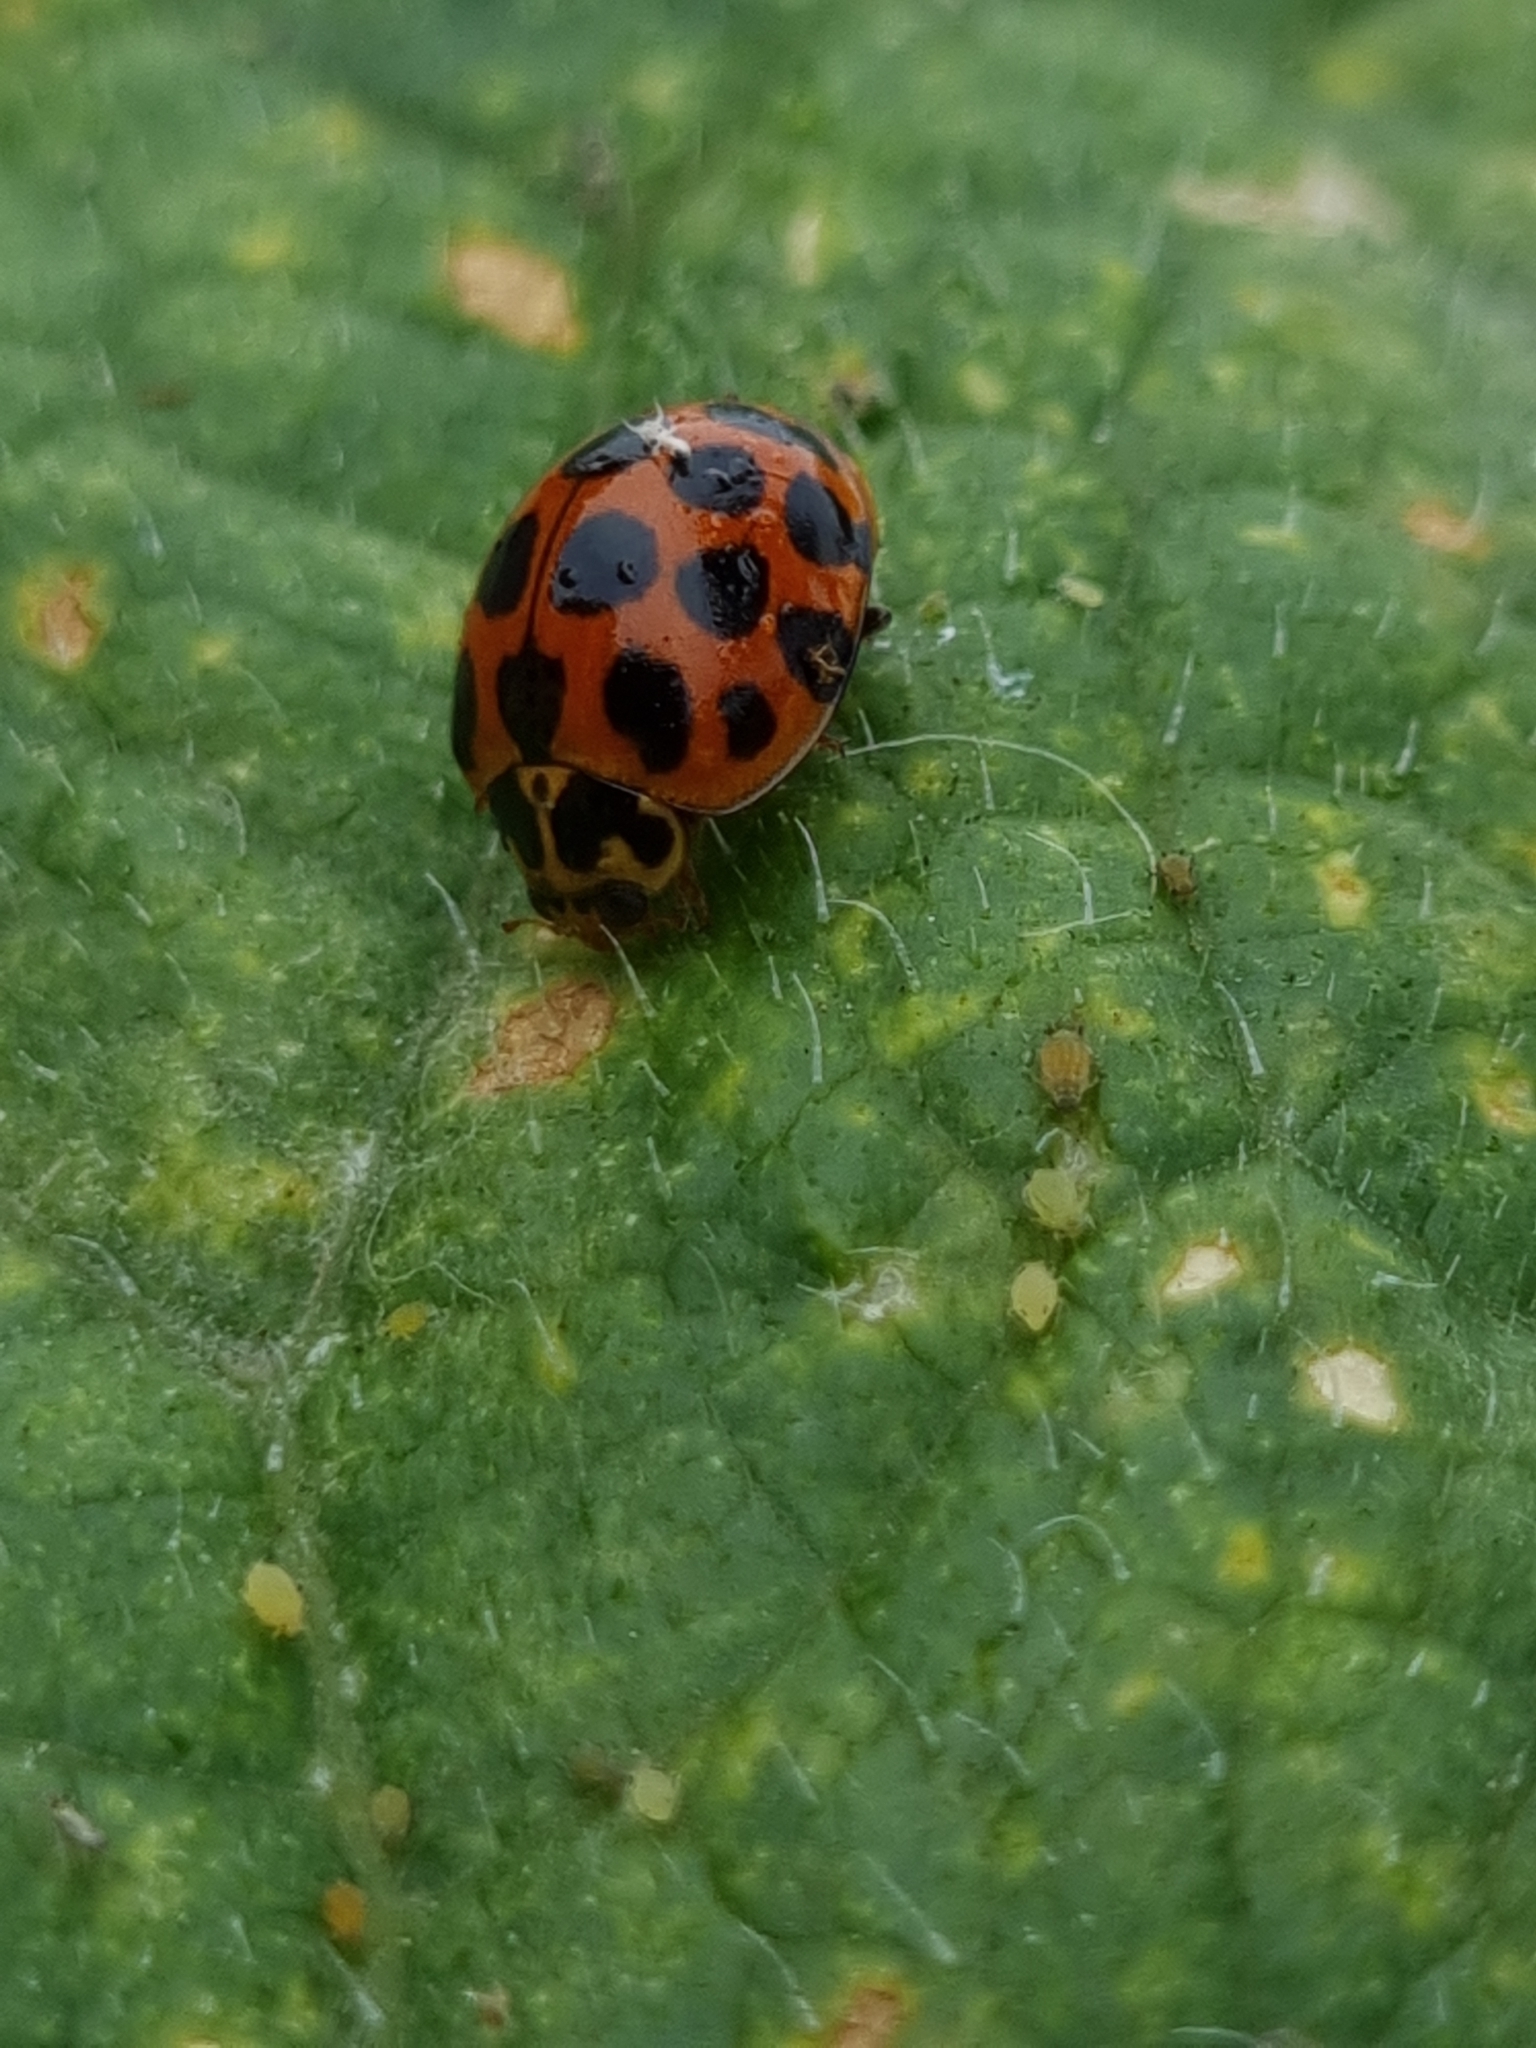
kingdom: Animalia
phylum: Arthropoda
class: Insecta
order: Coleoptera
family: Coccinellidae
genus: Harmonia
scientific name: Harmonia conformis
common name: Common spotted ladybird beetle
